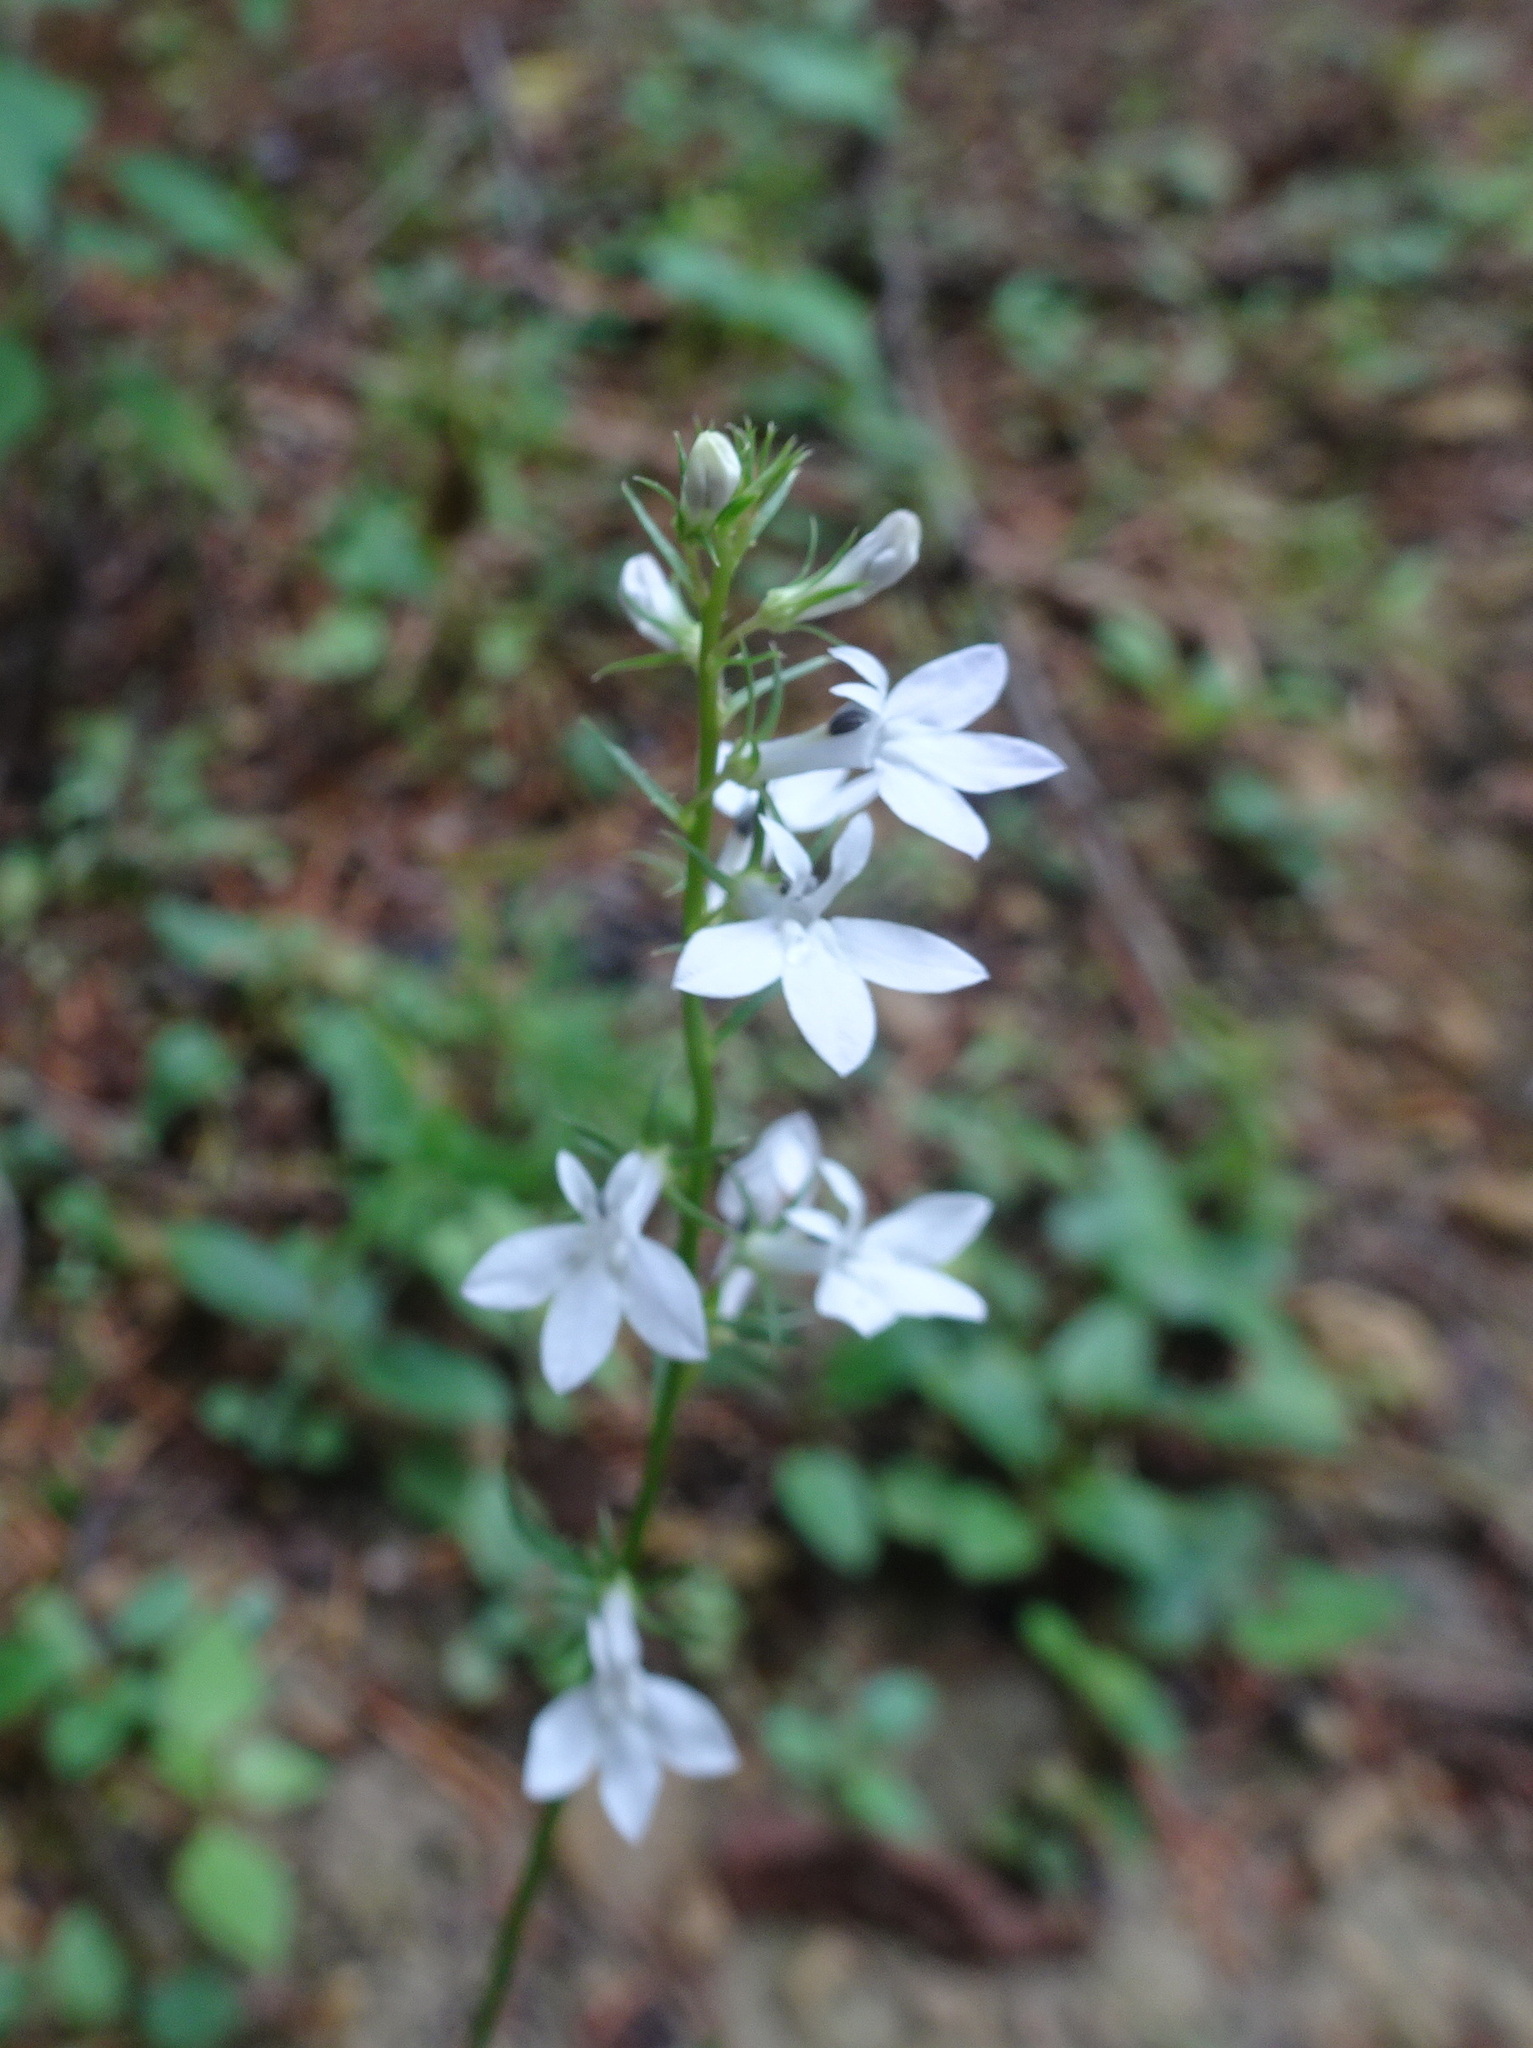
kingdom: Plantae
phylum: Tracheophyta
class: Magnoliopsida
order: Asterales
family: Campanulaceae
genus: Lobelia
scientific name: Lobelia spicata
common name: Pale-spike lobelia
